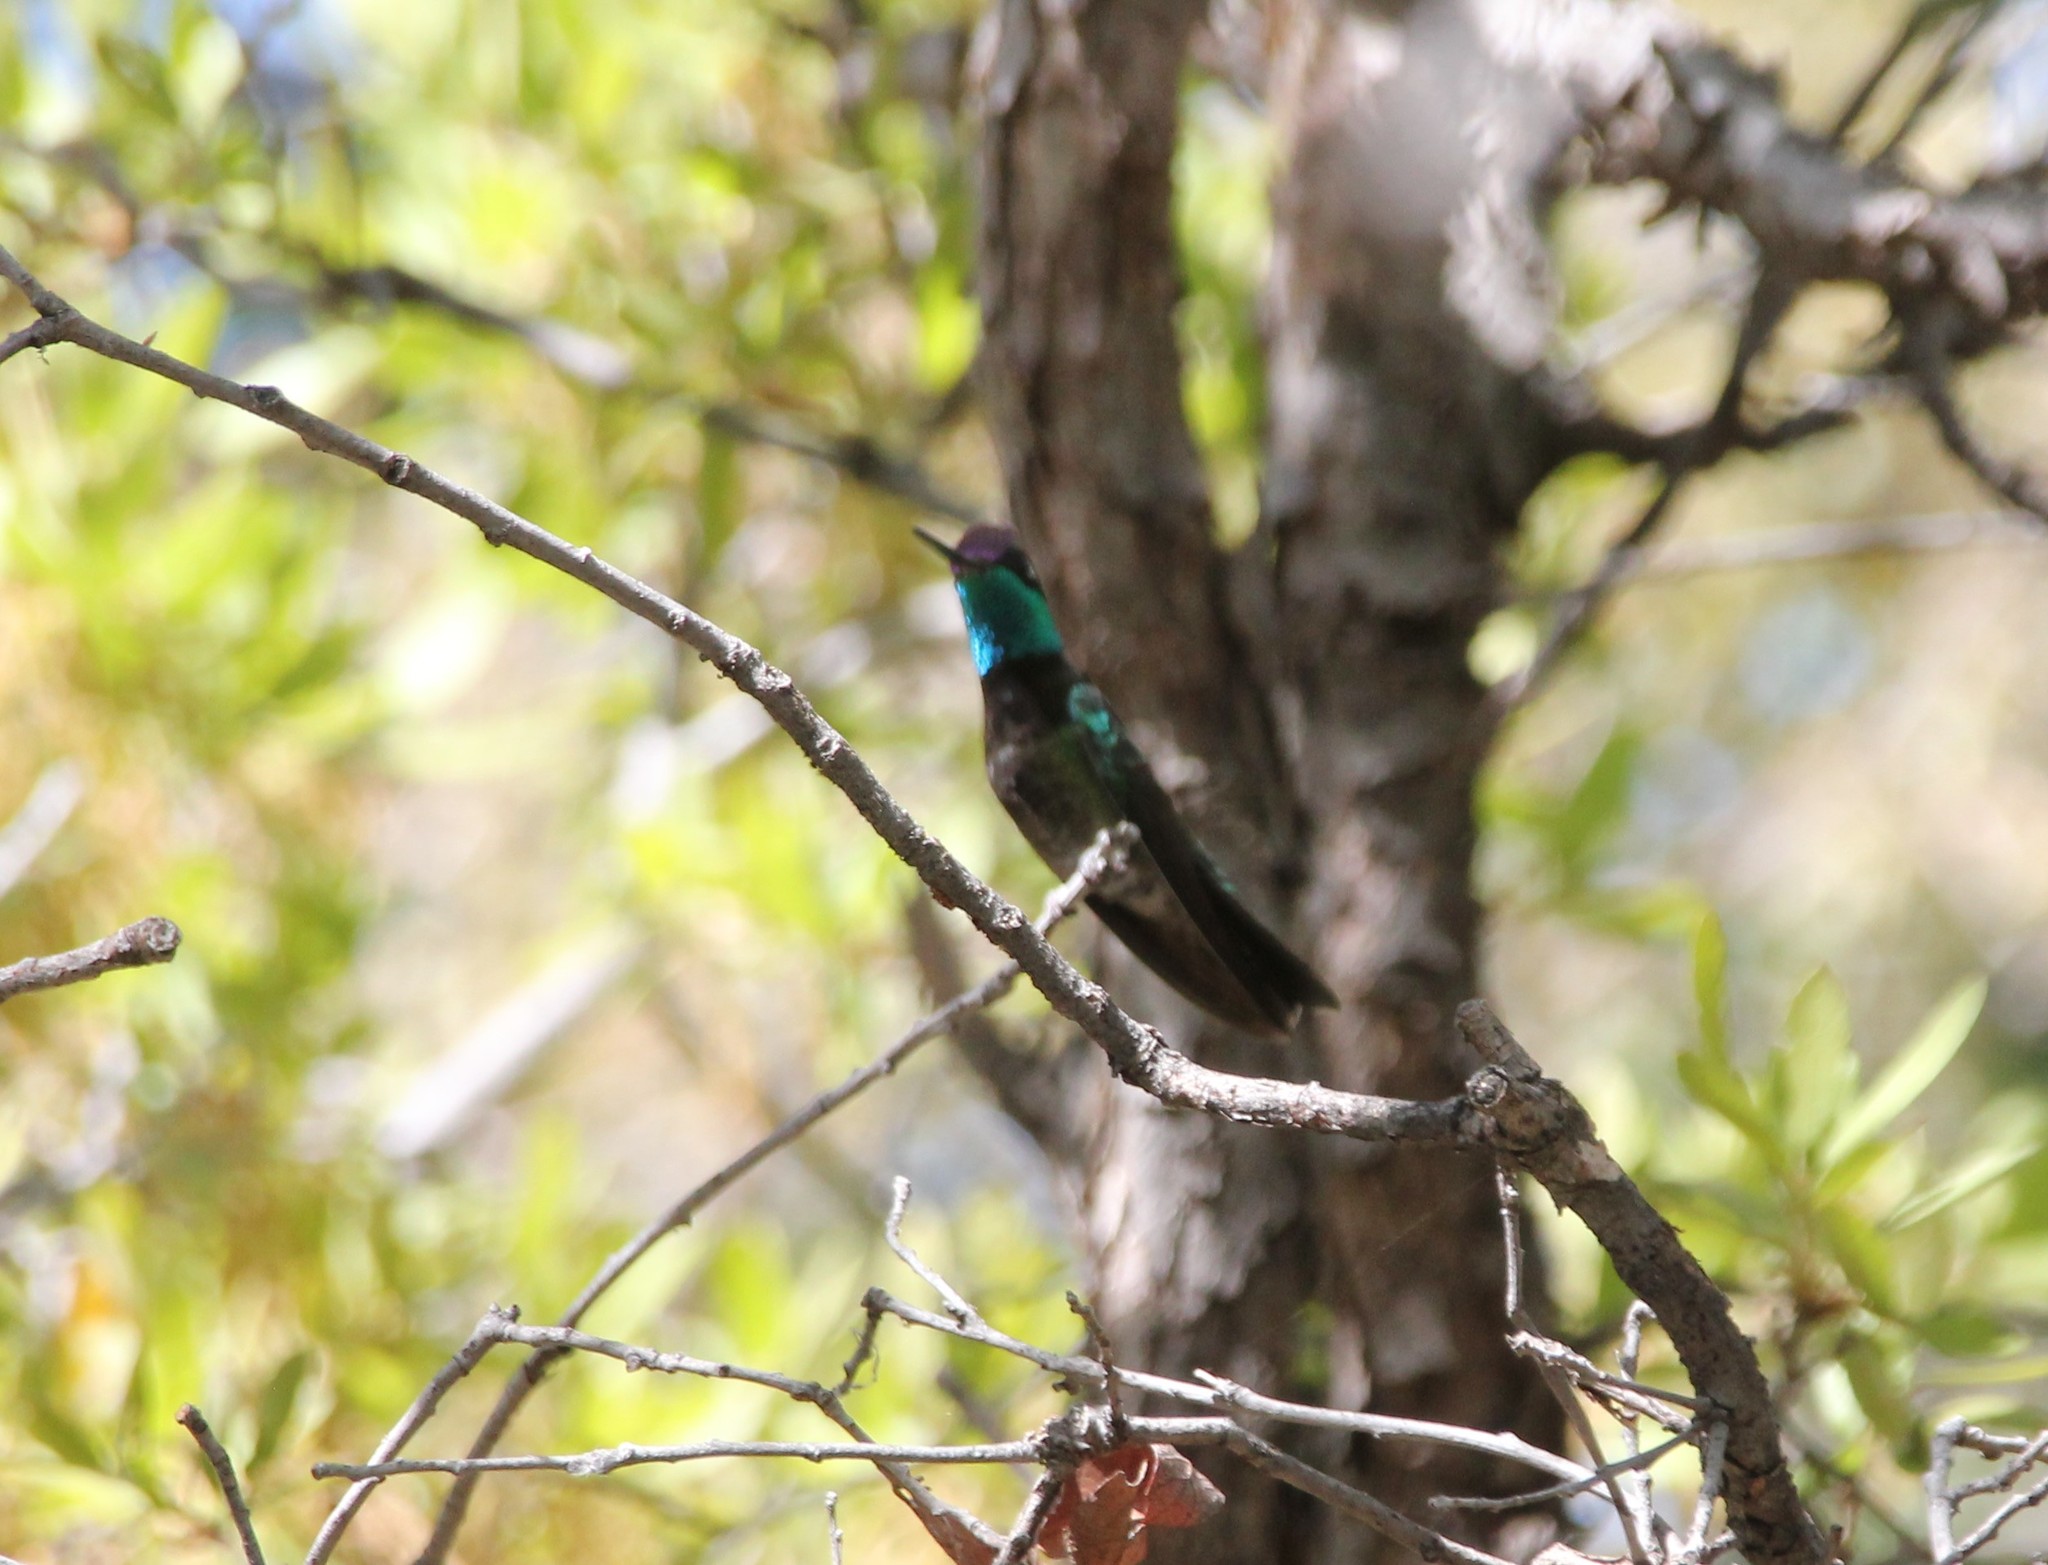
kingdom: Animalia
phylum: Chordata
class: Aves
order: Apodiformes
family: Trochilidae
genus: Eugenes
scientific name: Eugenes fulgens
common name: Magnificent hummingbird
